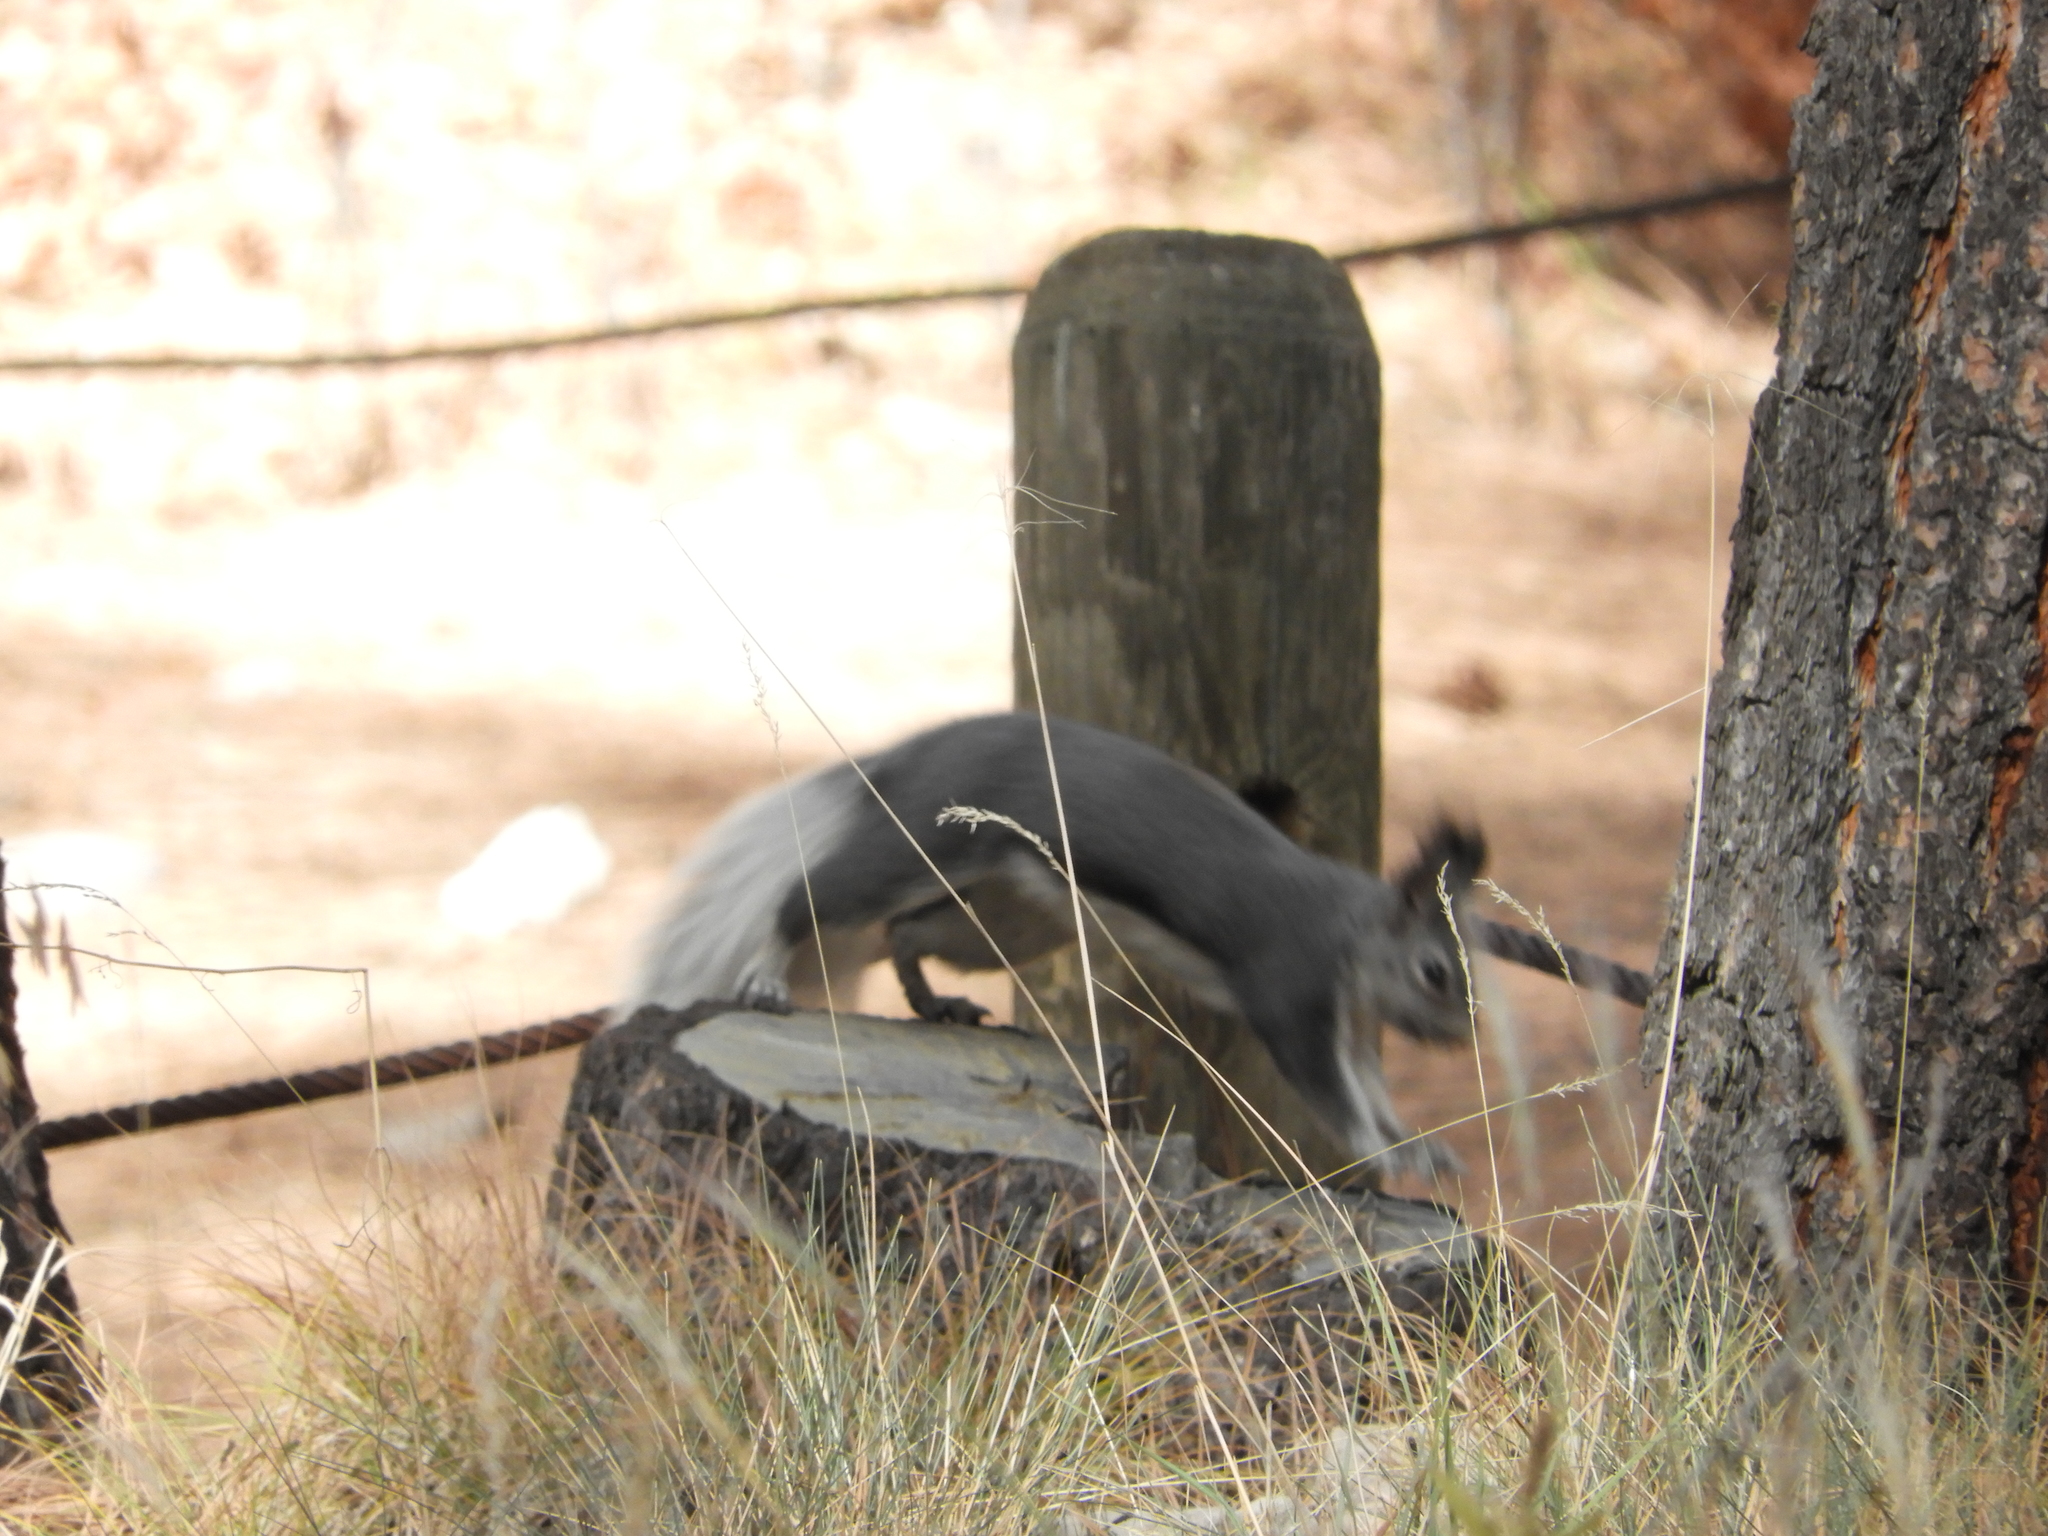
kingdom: Animalia
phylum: Chordata
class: Mammalia
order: Rodentia
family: Sciuridae
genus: Sciurus
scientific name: Sciurus aberti
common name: Abert's squirrel
